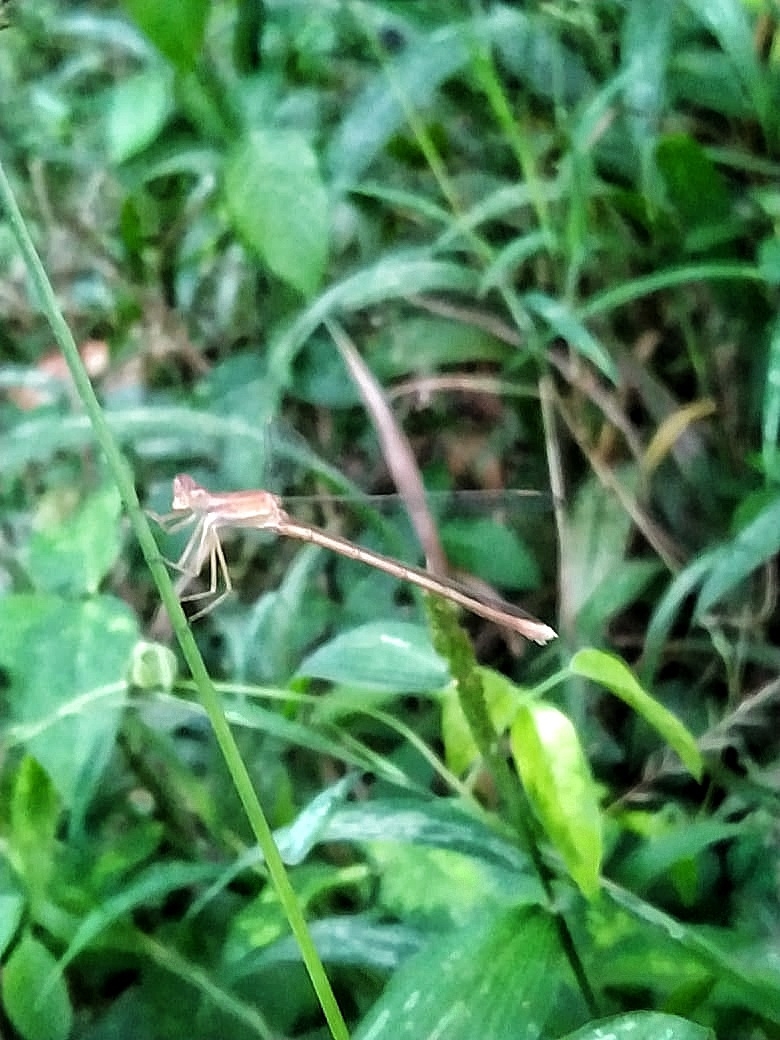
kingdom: Animalia
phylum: Arthropoda
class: Insecta
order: Odonata
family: Lestidae
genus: Lestes
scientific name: Lestes concinnus
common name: Dusky spreadwing
